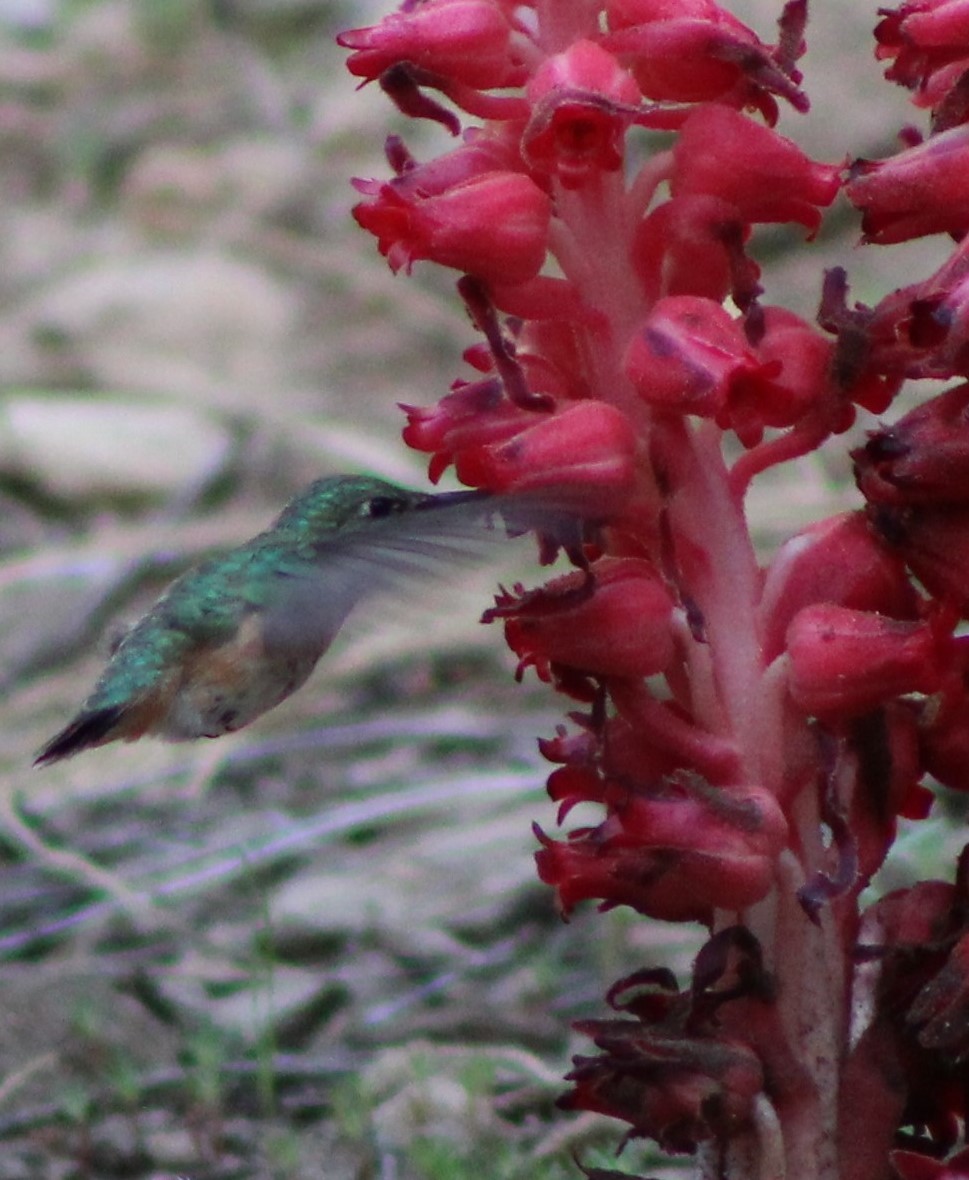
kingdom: Animalia
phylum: Chordata
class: Aves
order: Apodiformes
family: Trochilidae
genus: Selasphorus
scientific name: Selasphorus calliope
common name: Calliope hummingbird
